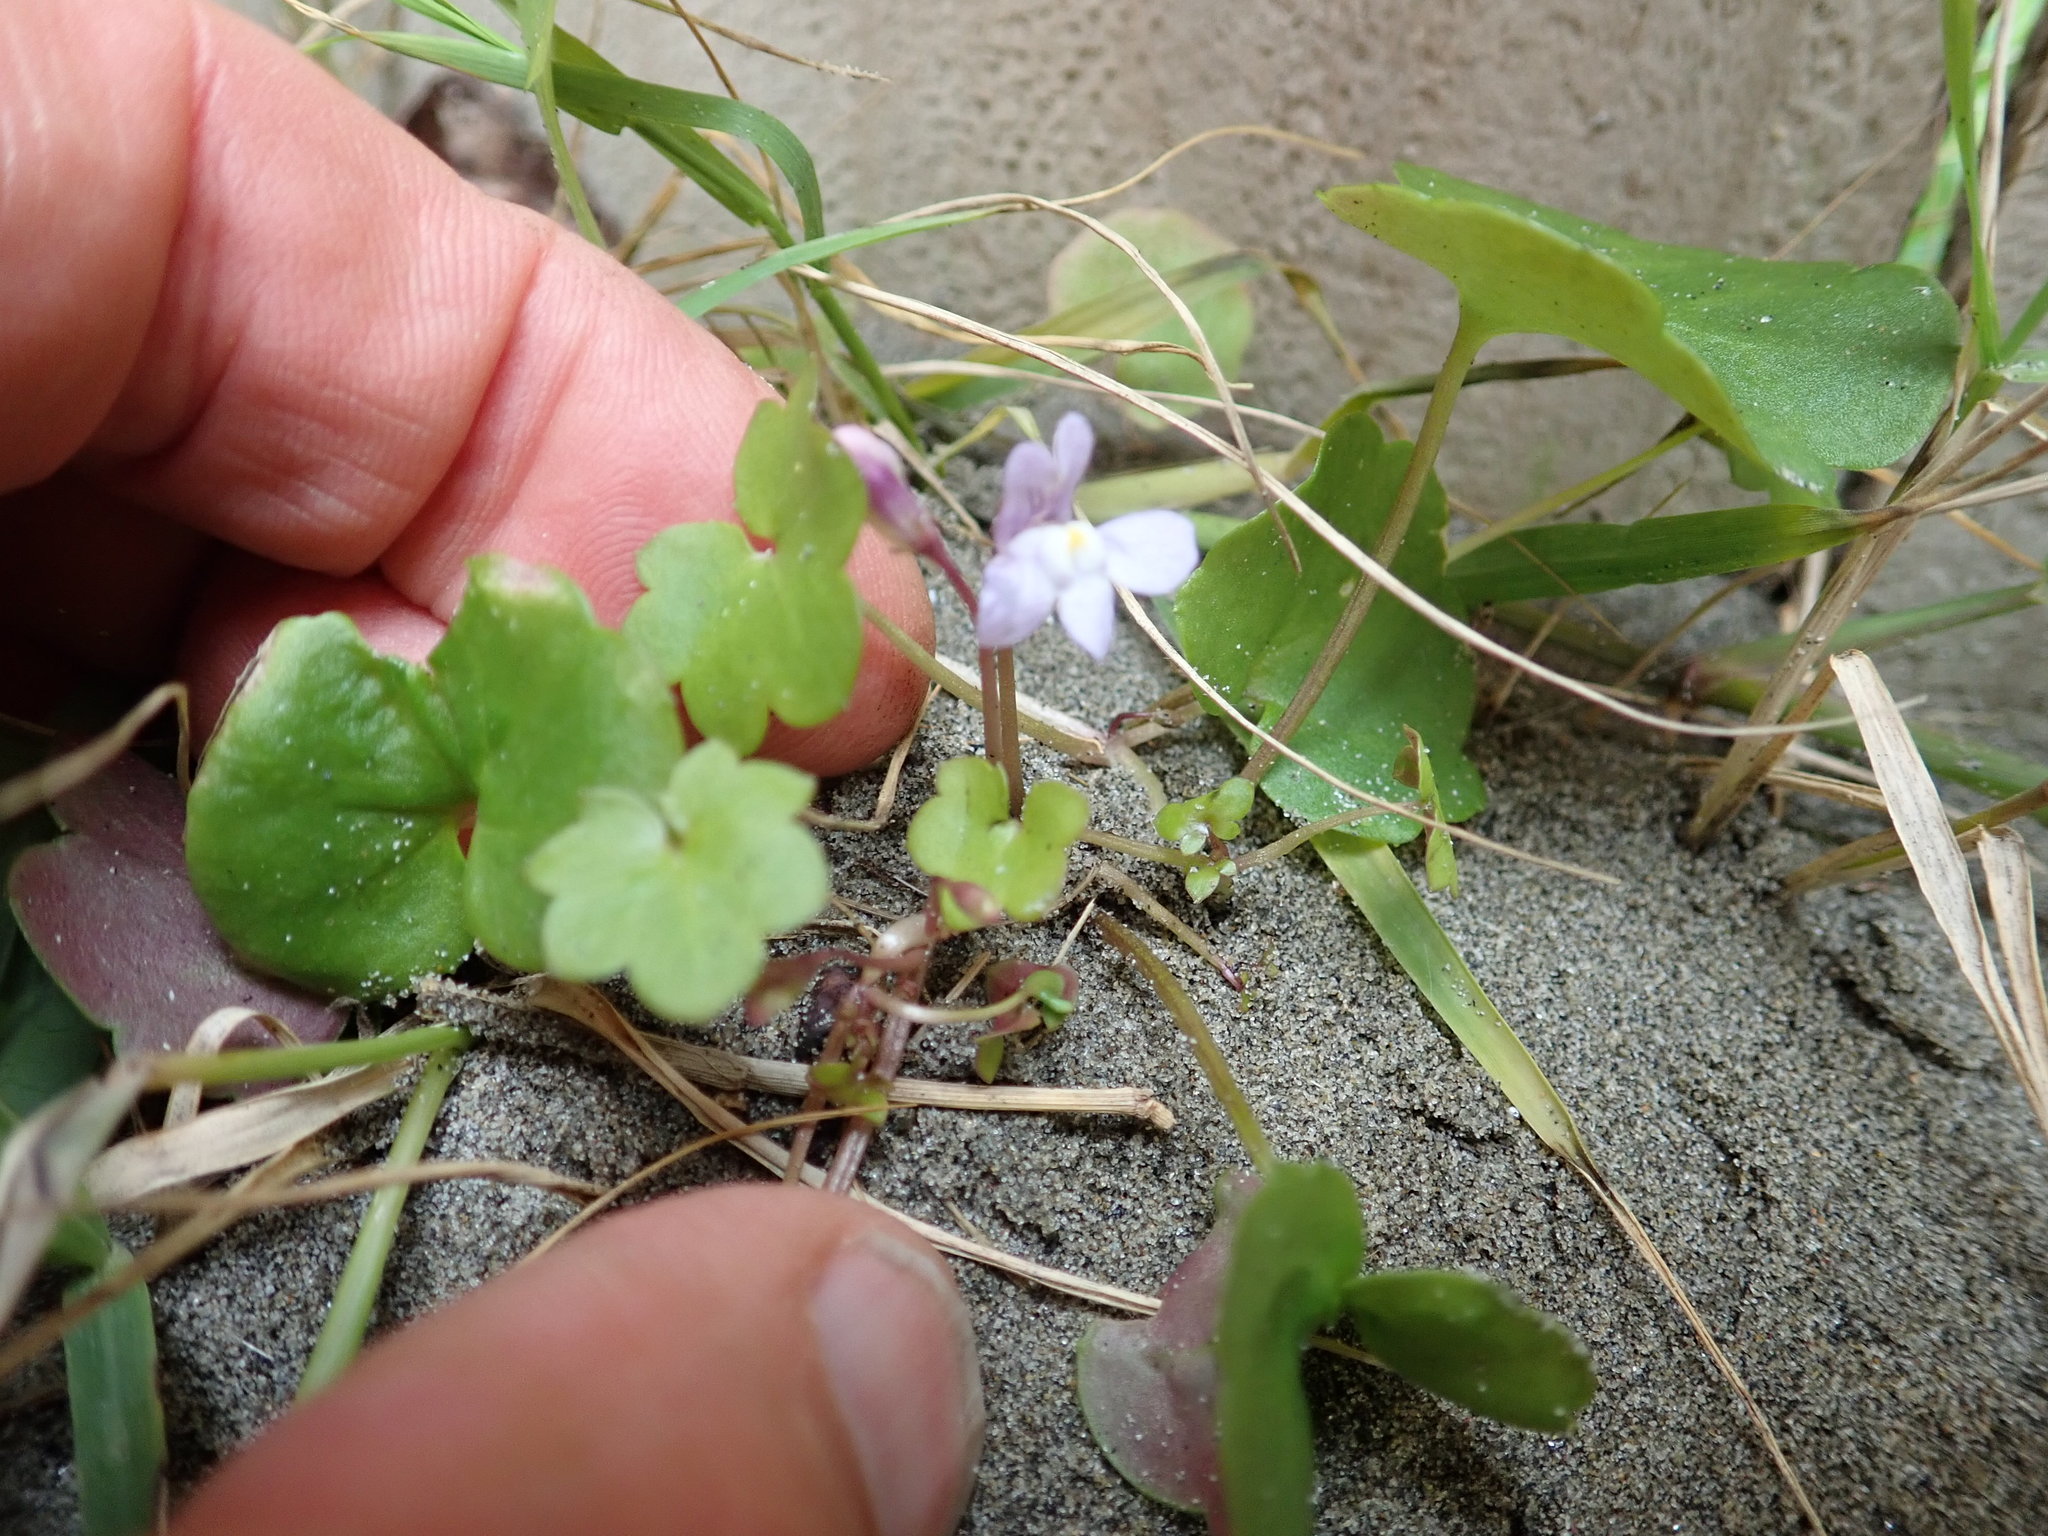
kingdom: Plantae
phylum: Tracheophyta
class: Magnoliopsida
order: Lamiales
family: Plantaginaceae
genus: Cymbalaria
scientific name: Cymbalaria muralis
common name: Ivy-leaved toadflax
